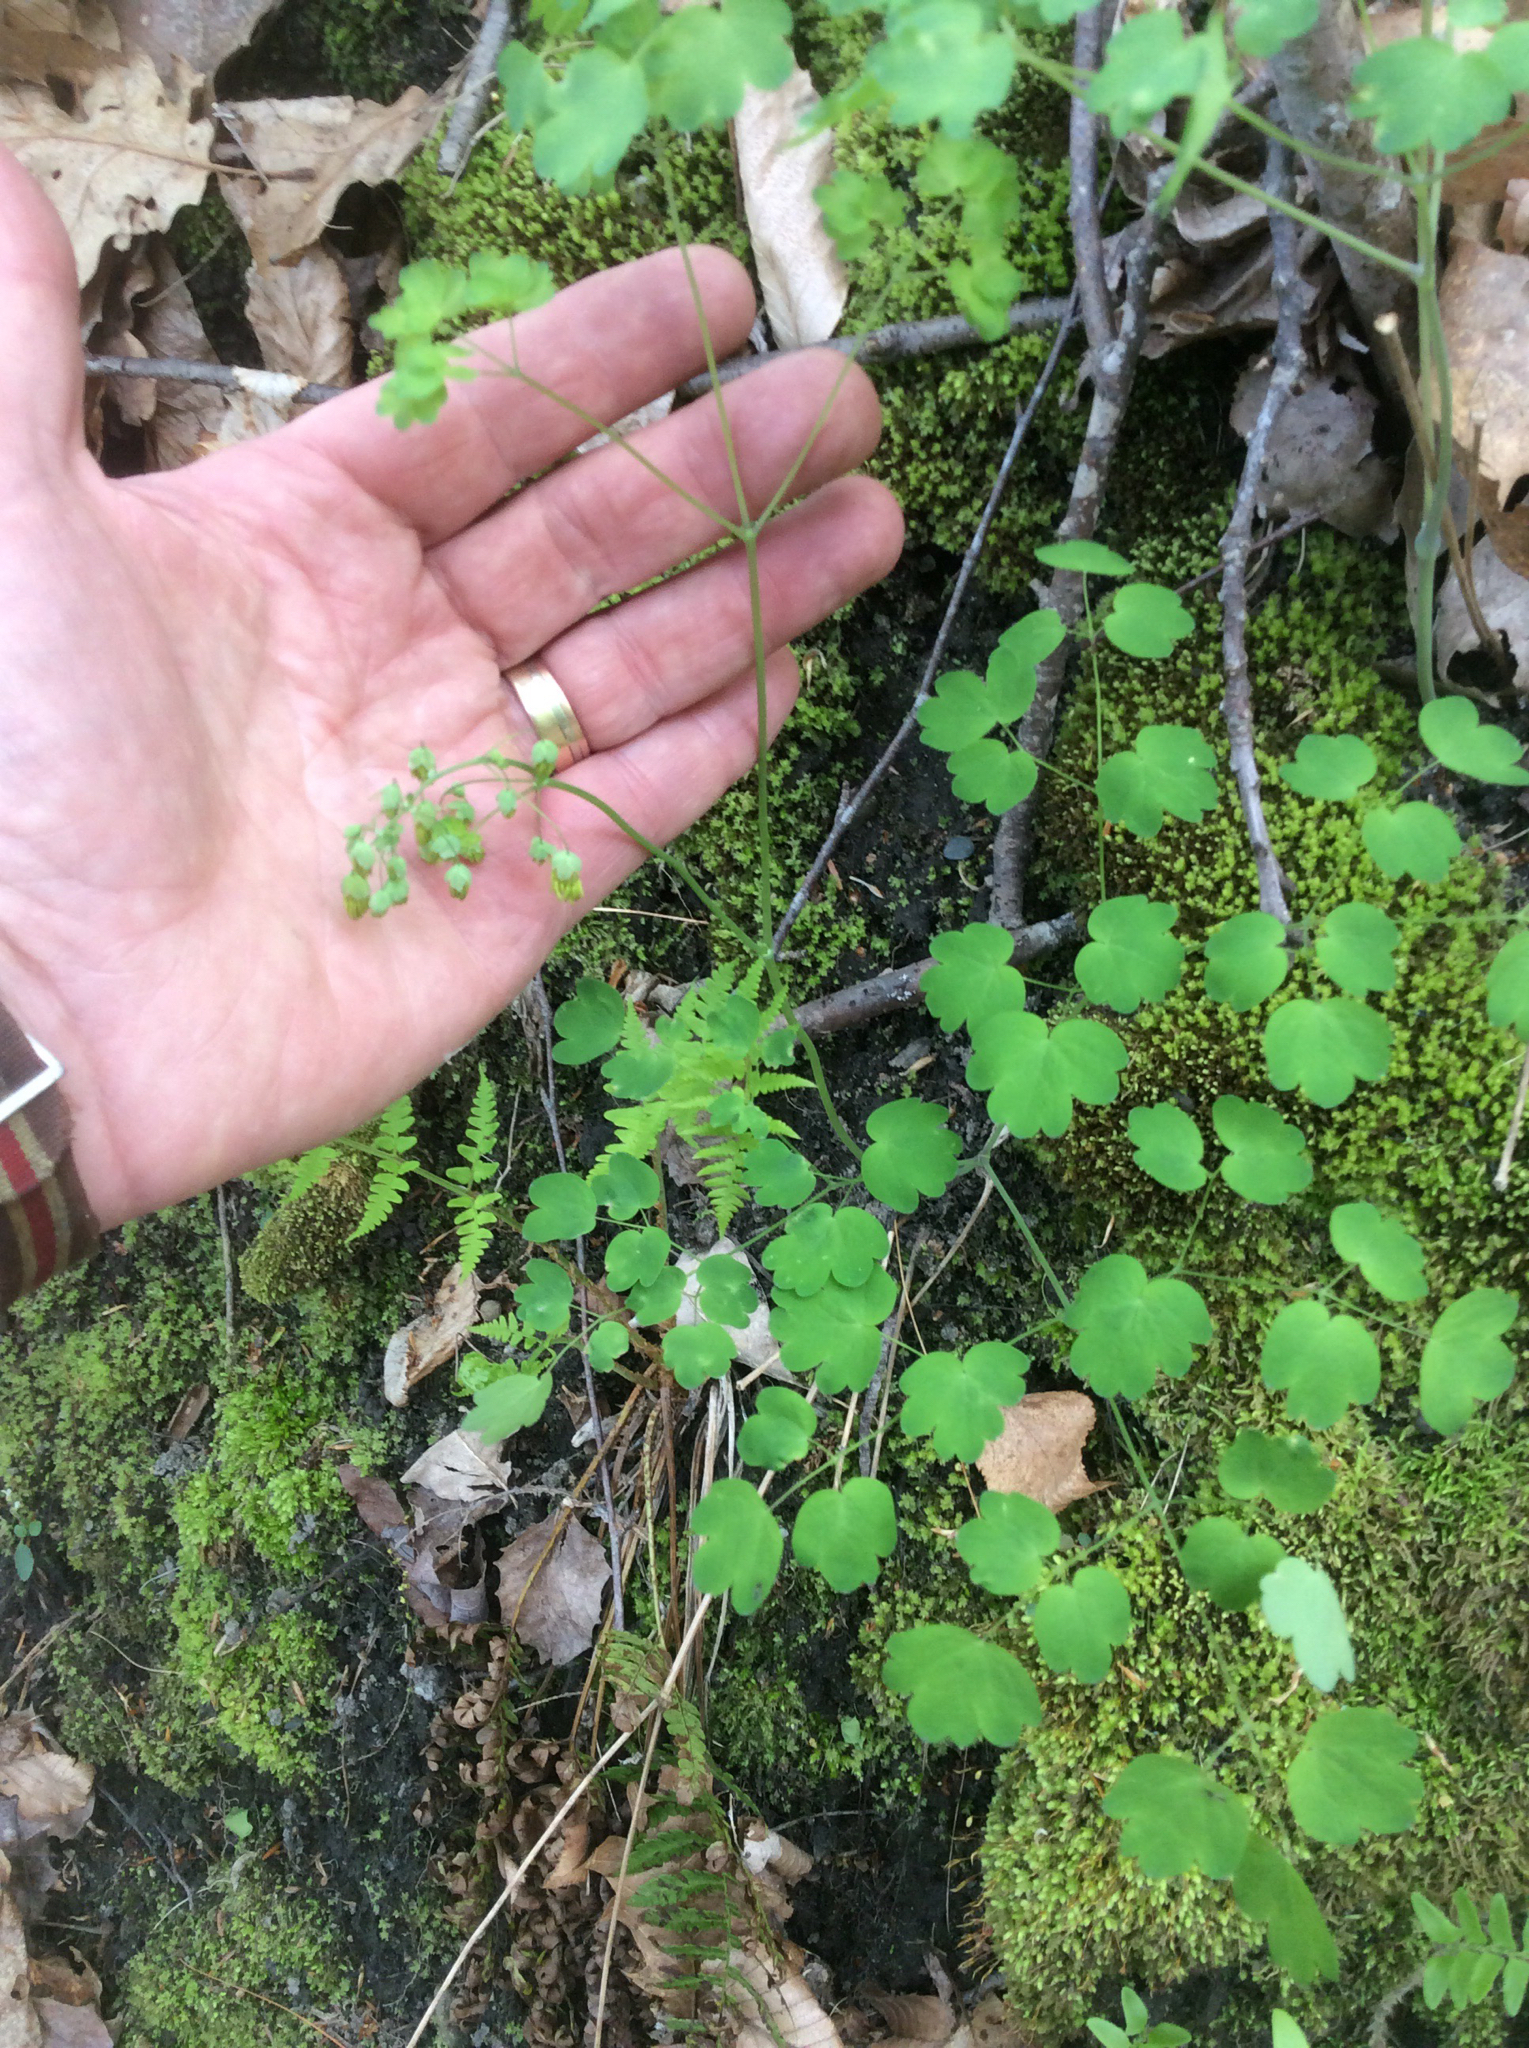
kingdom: Plantae
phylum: Tracheophyta
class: Magnoliopsida
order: Ranunculales
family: Ranunculaceae
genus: Thalictrum
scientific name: Thalictrum dioicum
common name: Early meadow-rue
